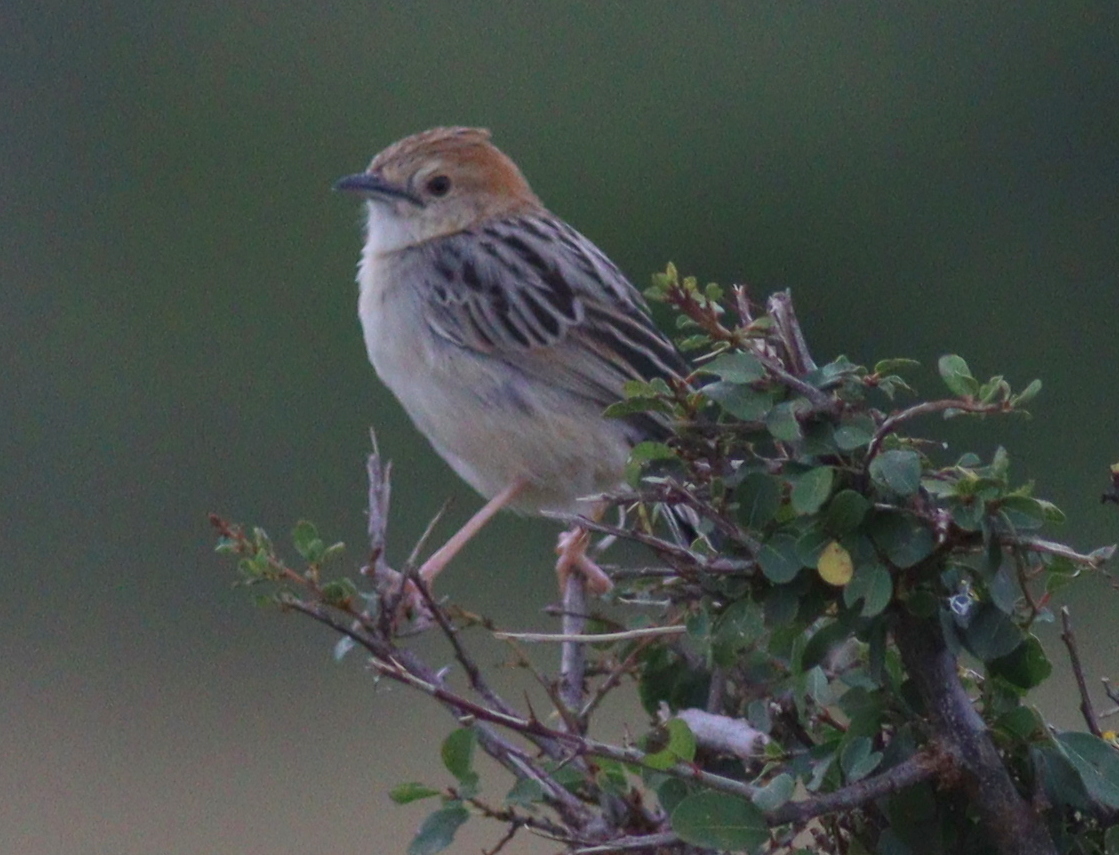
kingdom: Animalia
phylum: Chordata
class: Aves
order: Passeriformes
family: Cisticolidae
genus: Cisticola
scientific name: Cisticola robustus
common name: Stout cisticola
